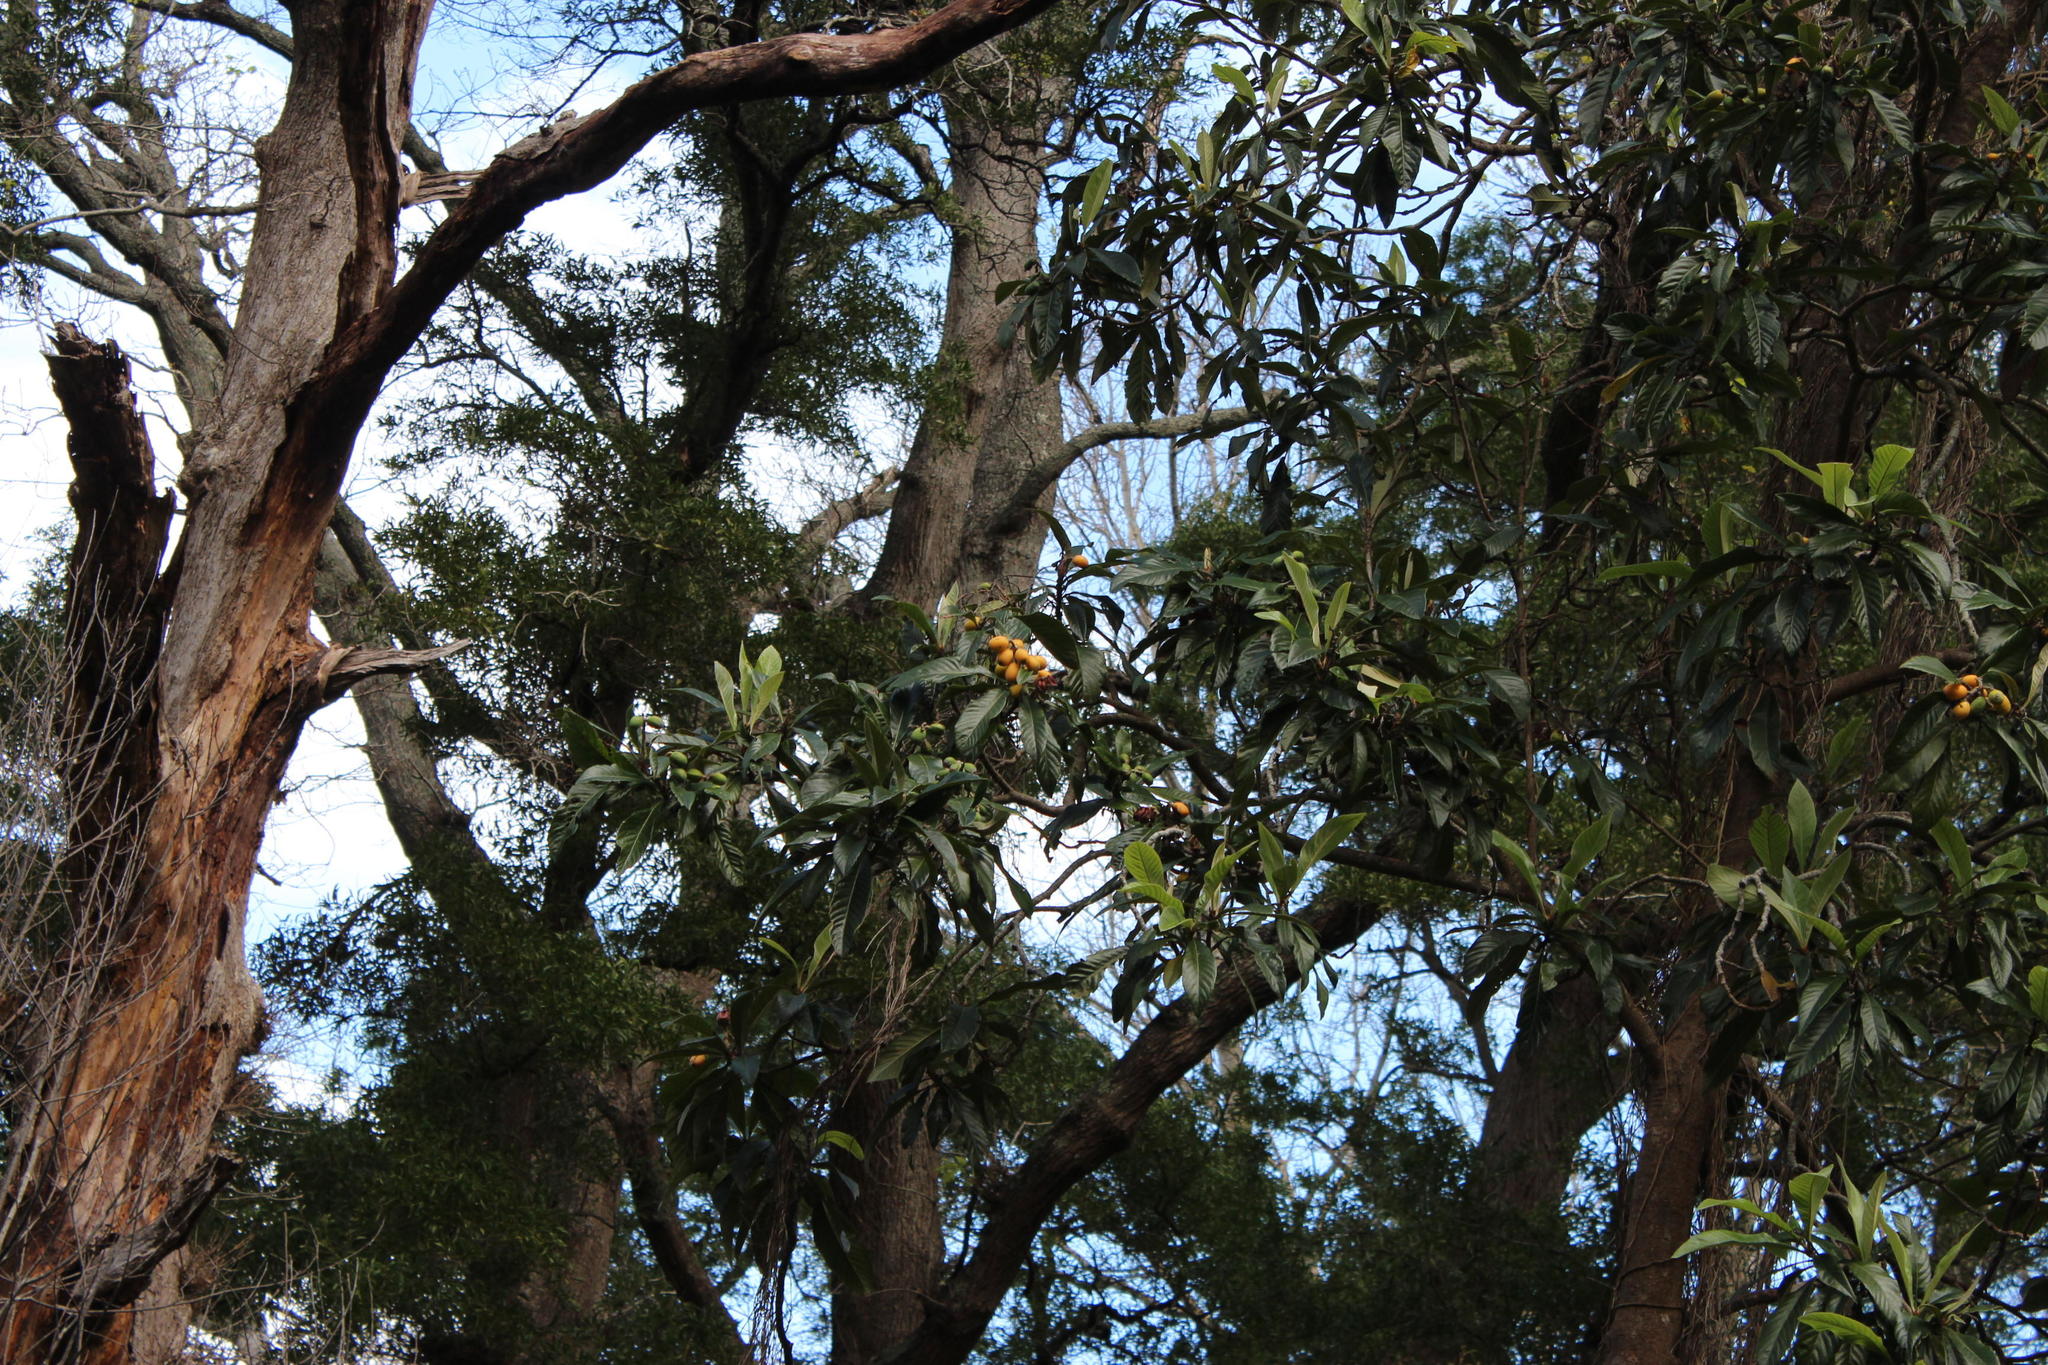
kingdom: Plantae
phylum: Tracheophyta
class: Magnoliopsida
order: Rosales
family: Rosaceae
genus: Rhaphiolepis
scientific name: Rhaphiolepis bibas
